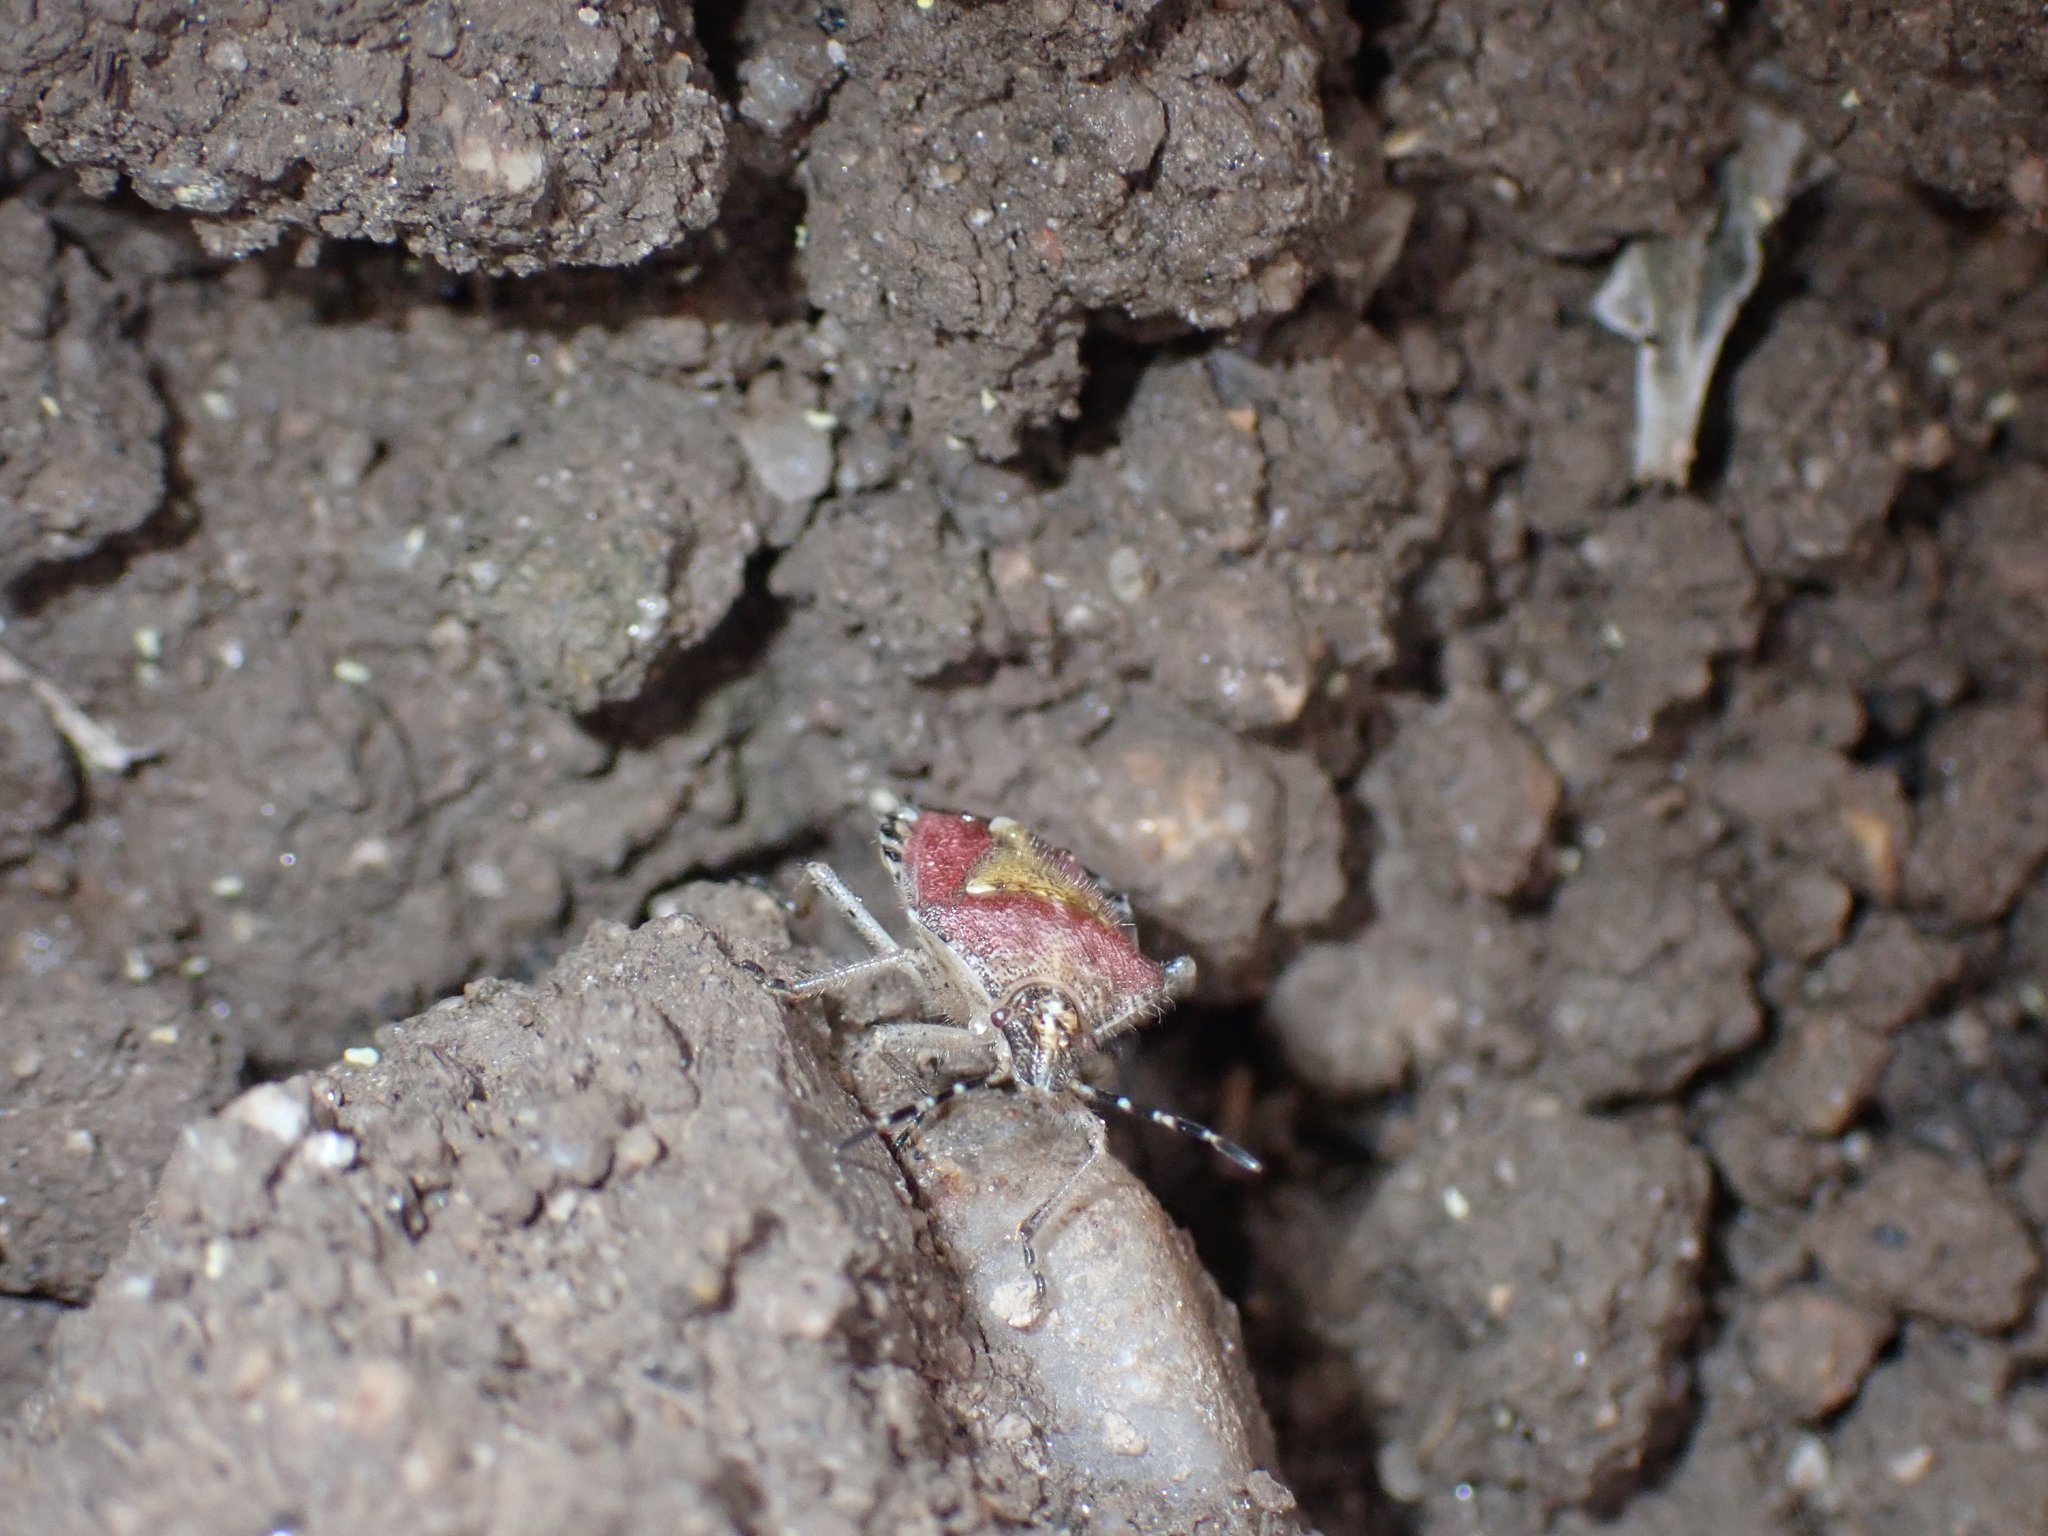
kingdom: Animalia
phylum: Arthropoda
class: Insecta
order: Hemiptera
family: Pentatomidae
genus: Dolycoris
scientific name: Dolycoris baccarum
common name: Sloe bug
